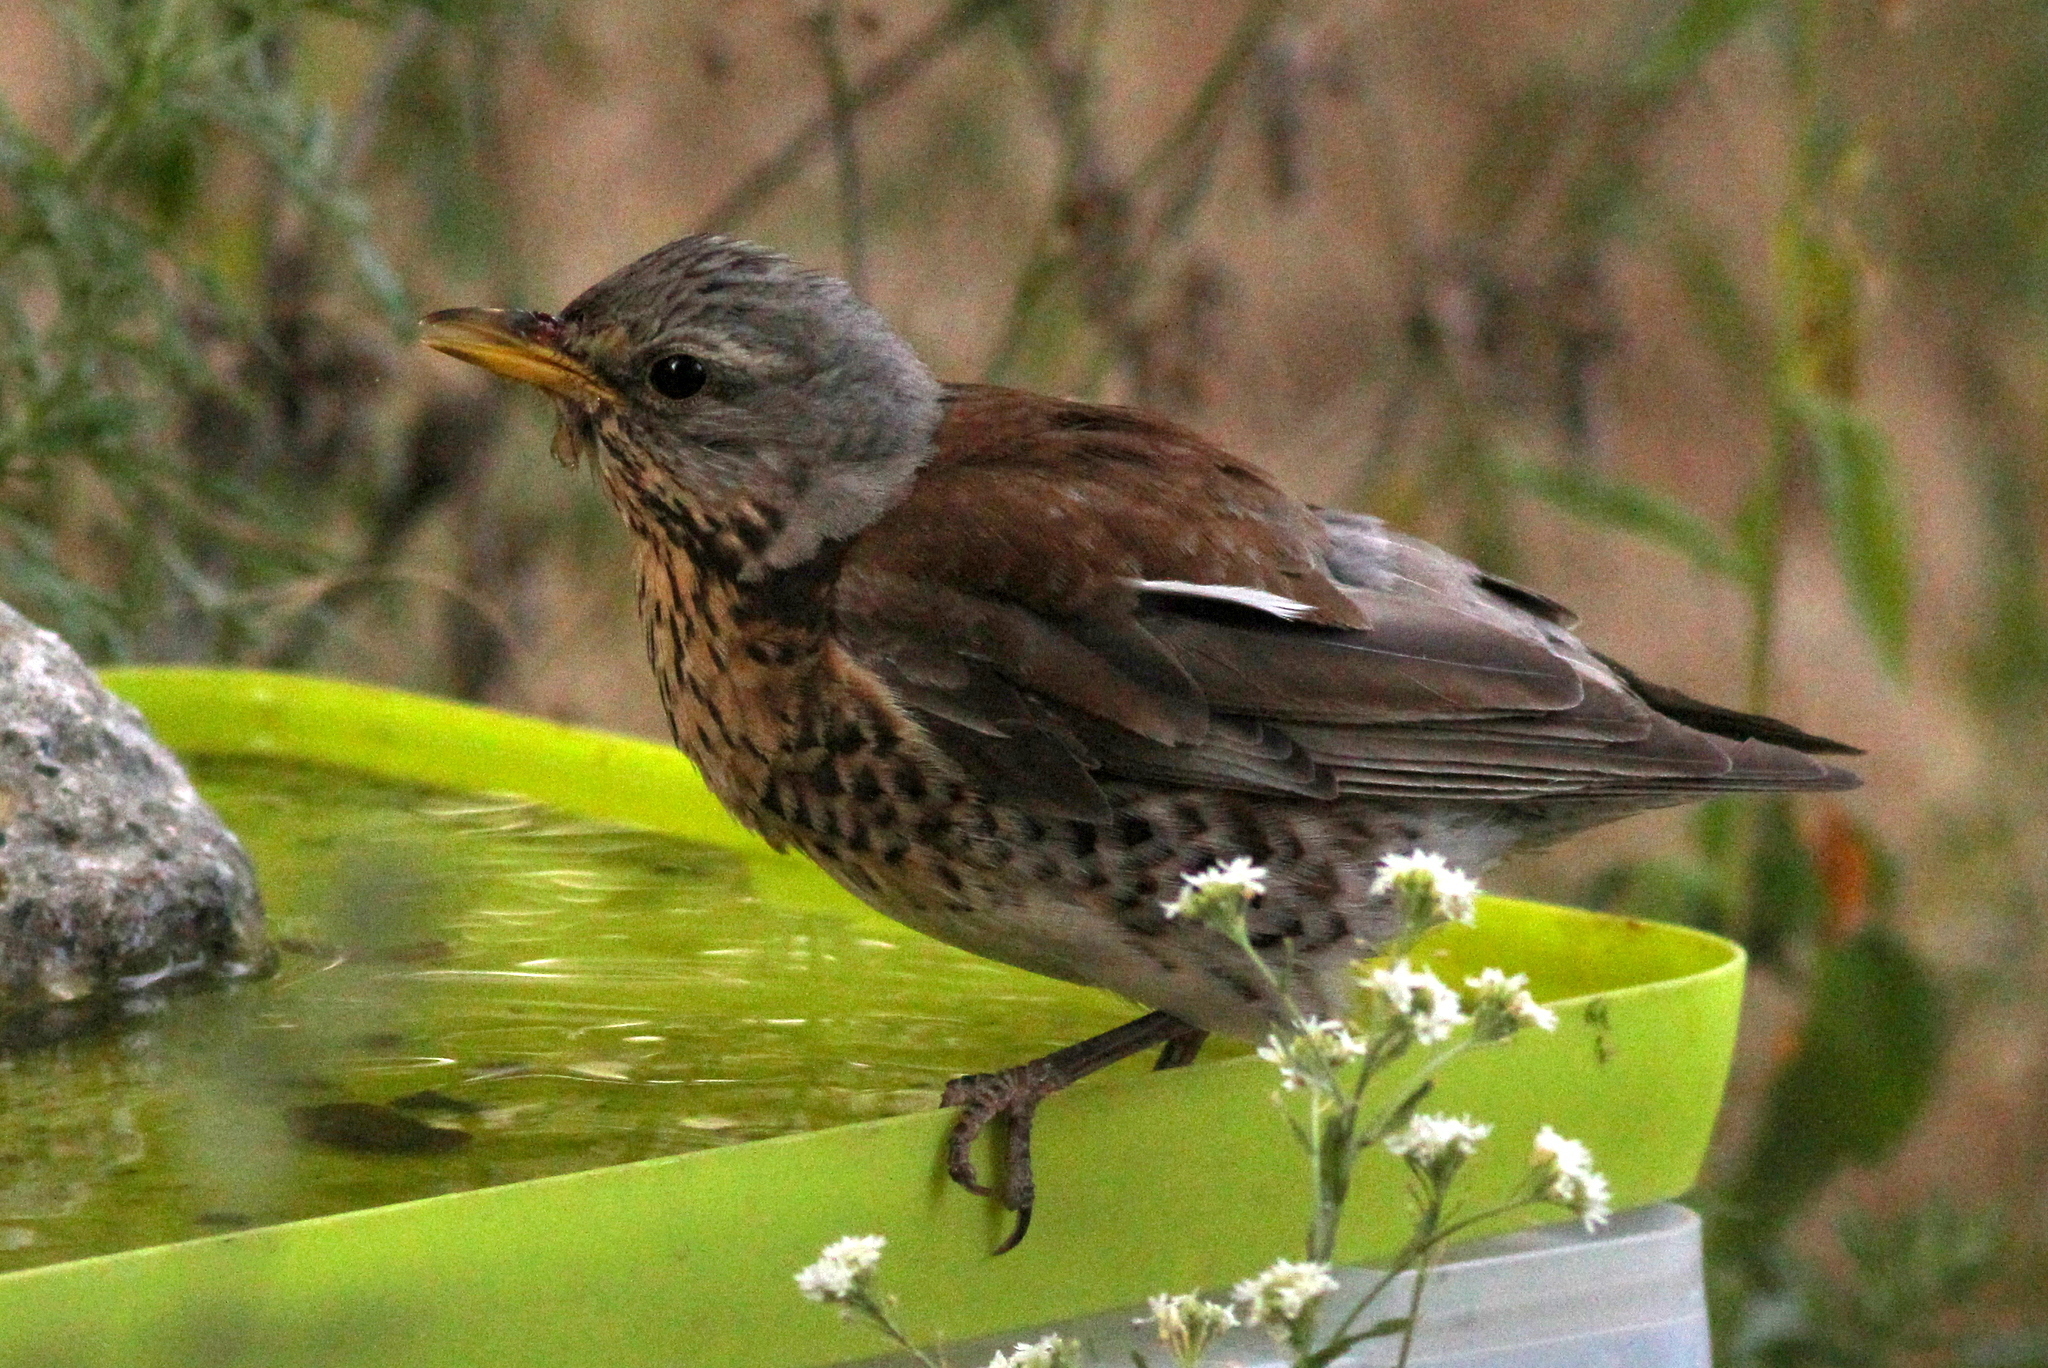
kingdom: Animalia
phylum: Chordata
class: Aves
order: Passeriformes
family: Turdidae
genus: Turdus
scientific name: Turdus pilaris
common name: Fieldfare
